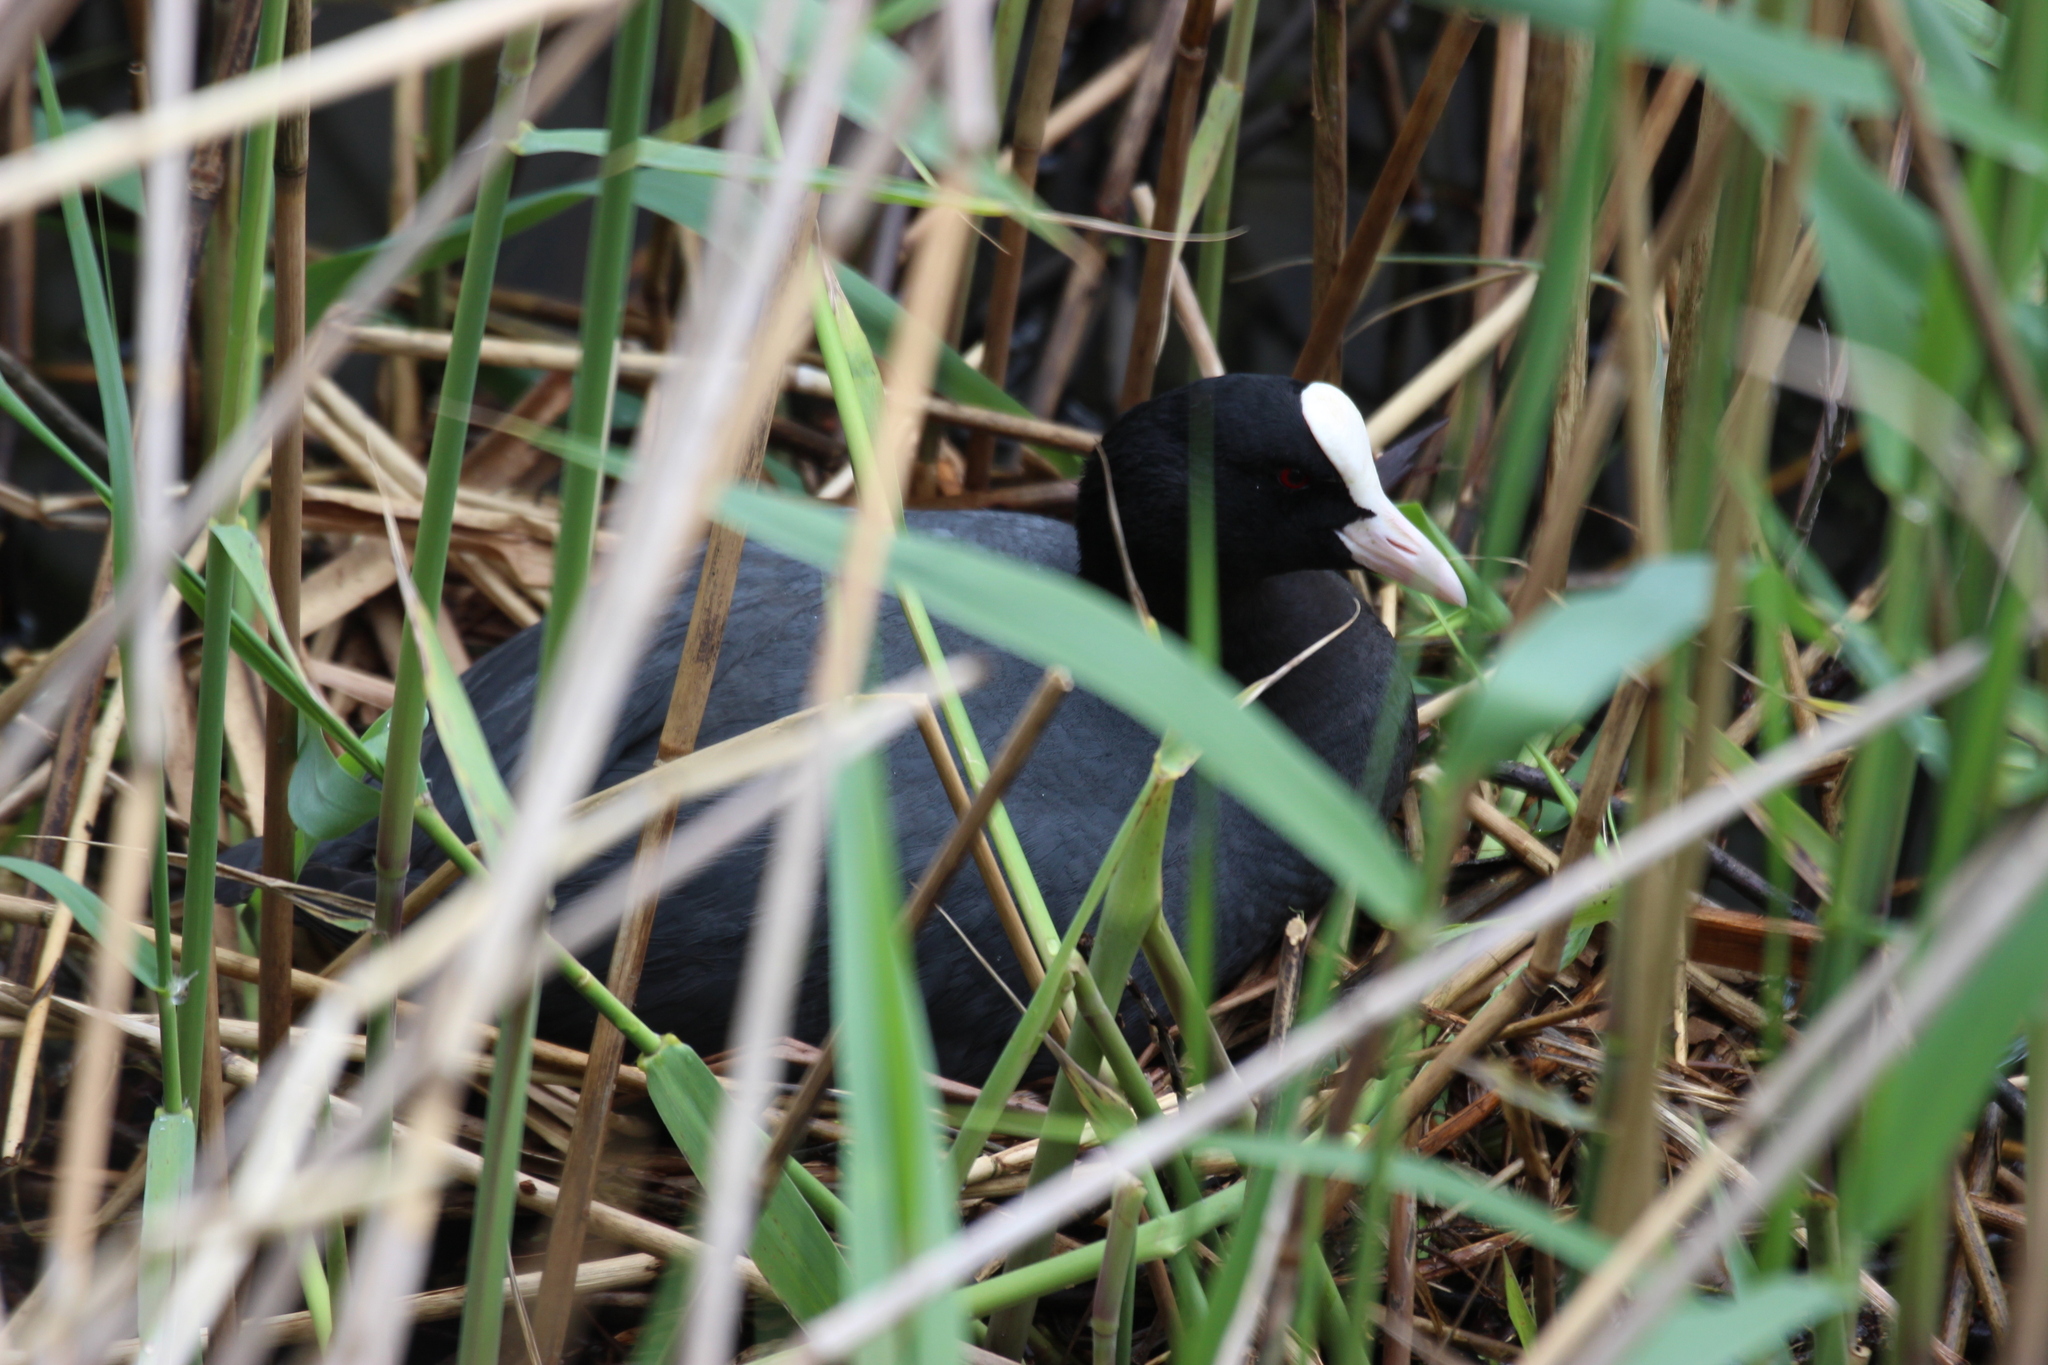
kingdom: Animalia
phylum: Chordata
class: Aves
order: Gruiformes
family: Rallidae
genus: Fulica
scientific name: Fulica atra
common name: Eurasian coot
